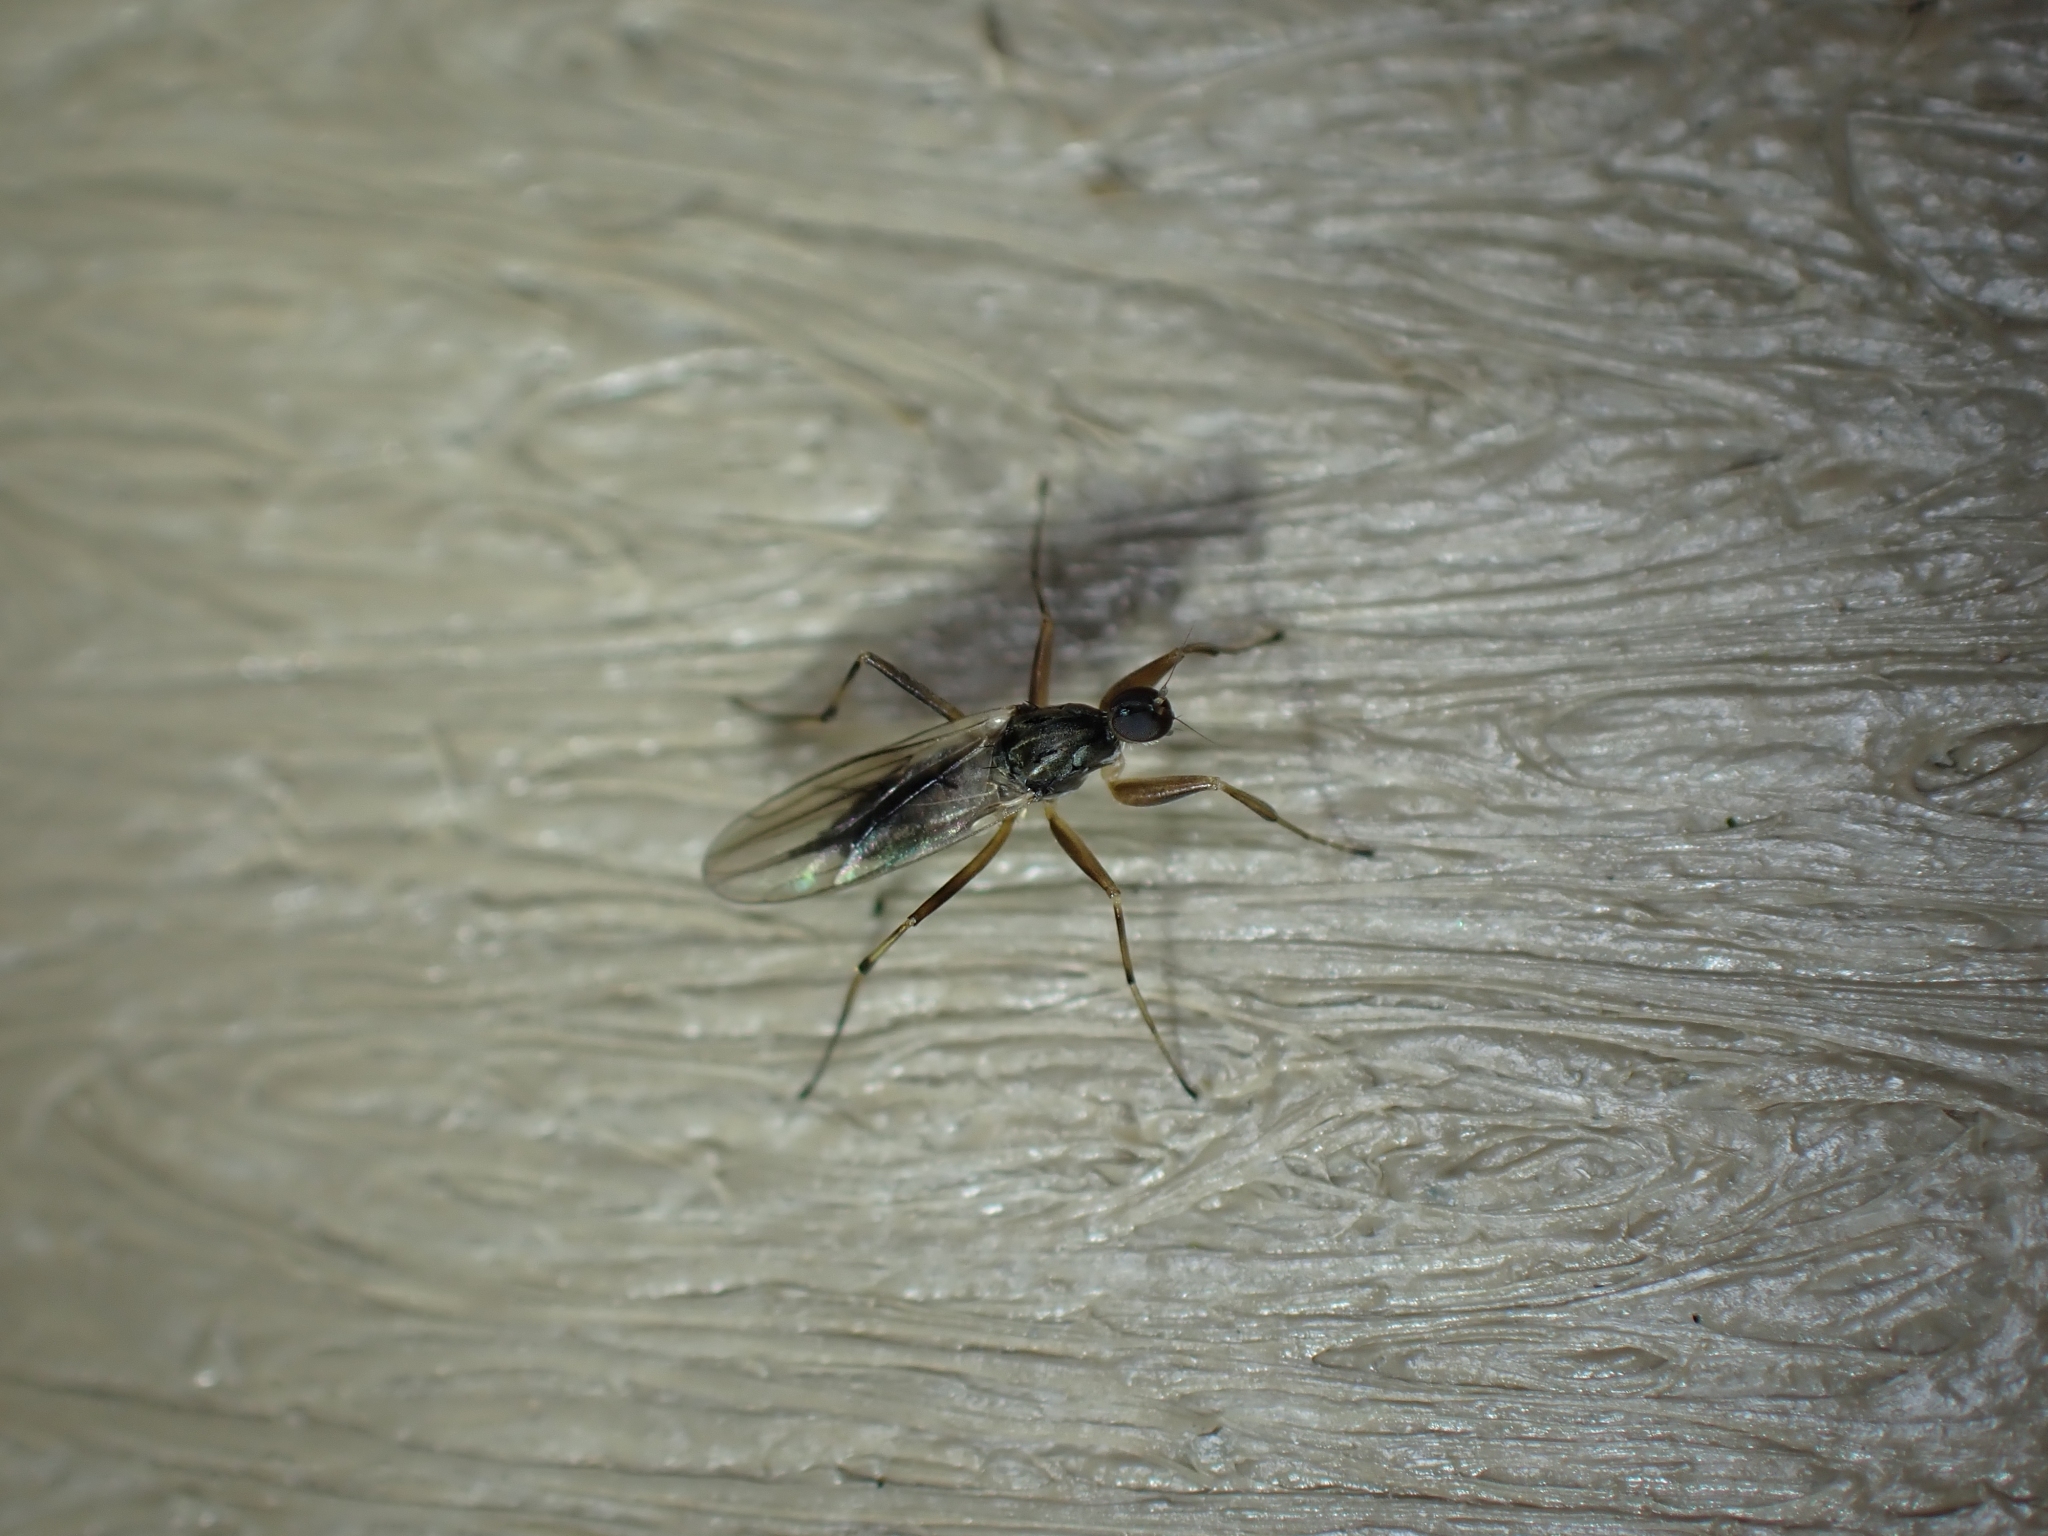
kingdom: Animalia
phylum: Arthropoda
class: Insecta
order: Diptera
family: Hybotidae
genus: Tachypeza
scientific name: Tachypeza inusta
